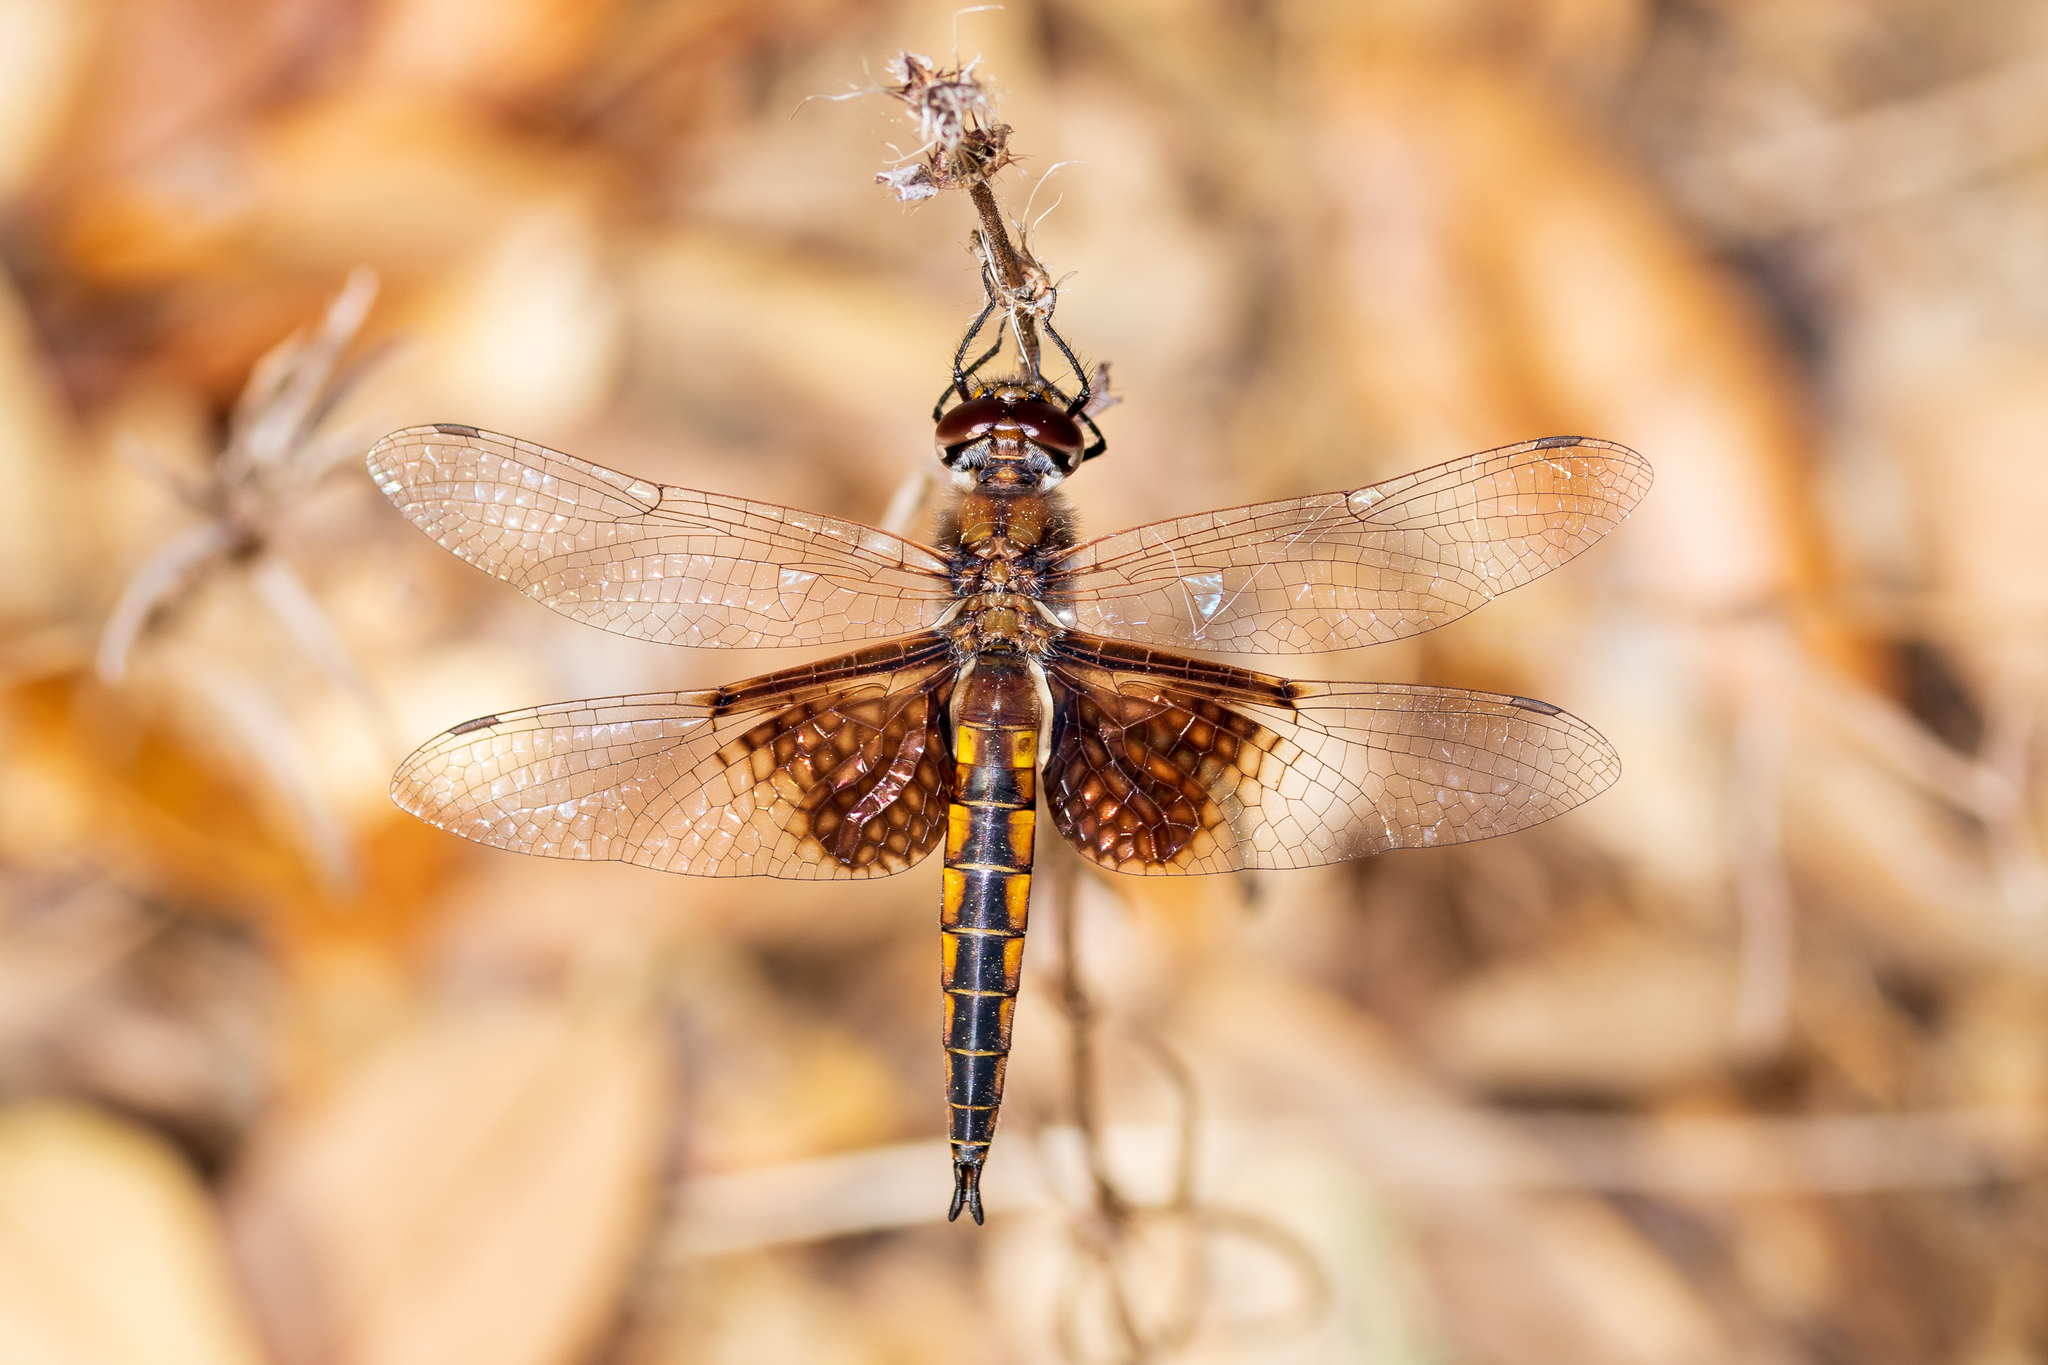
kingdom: Animalia
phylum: Arthropoda
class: Insecta
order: Odonata
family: Corduliidae
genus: Epitheca
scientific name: Epitheca semiaquea
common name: Mantled baskettail
